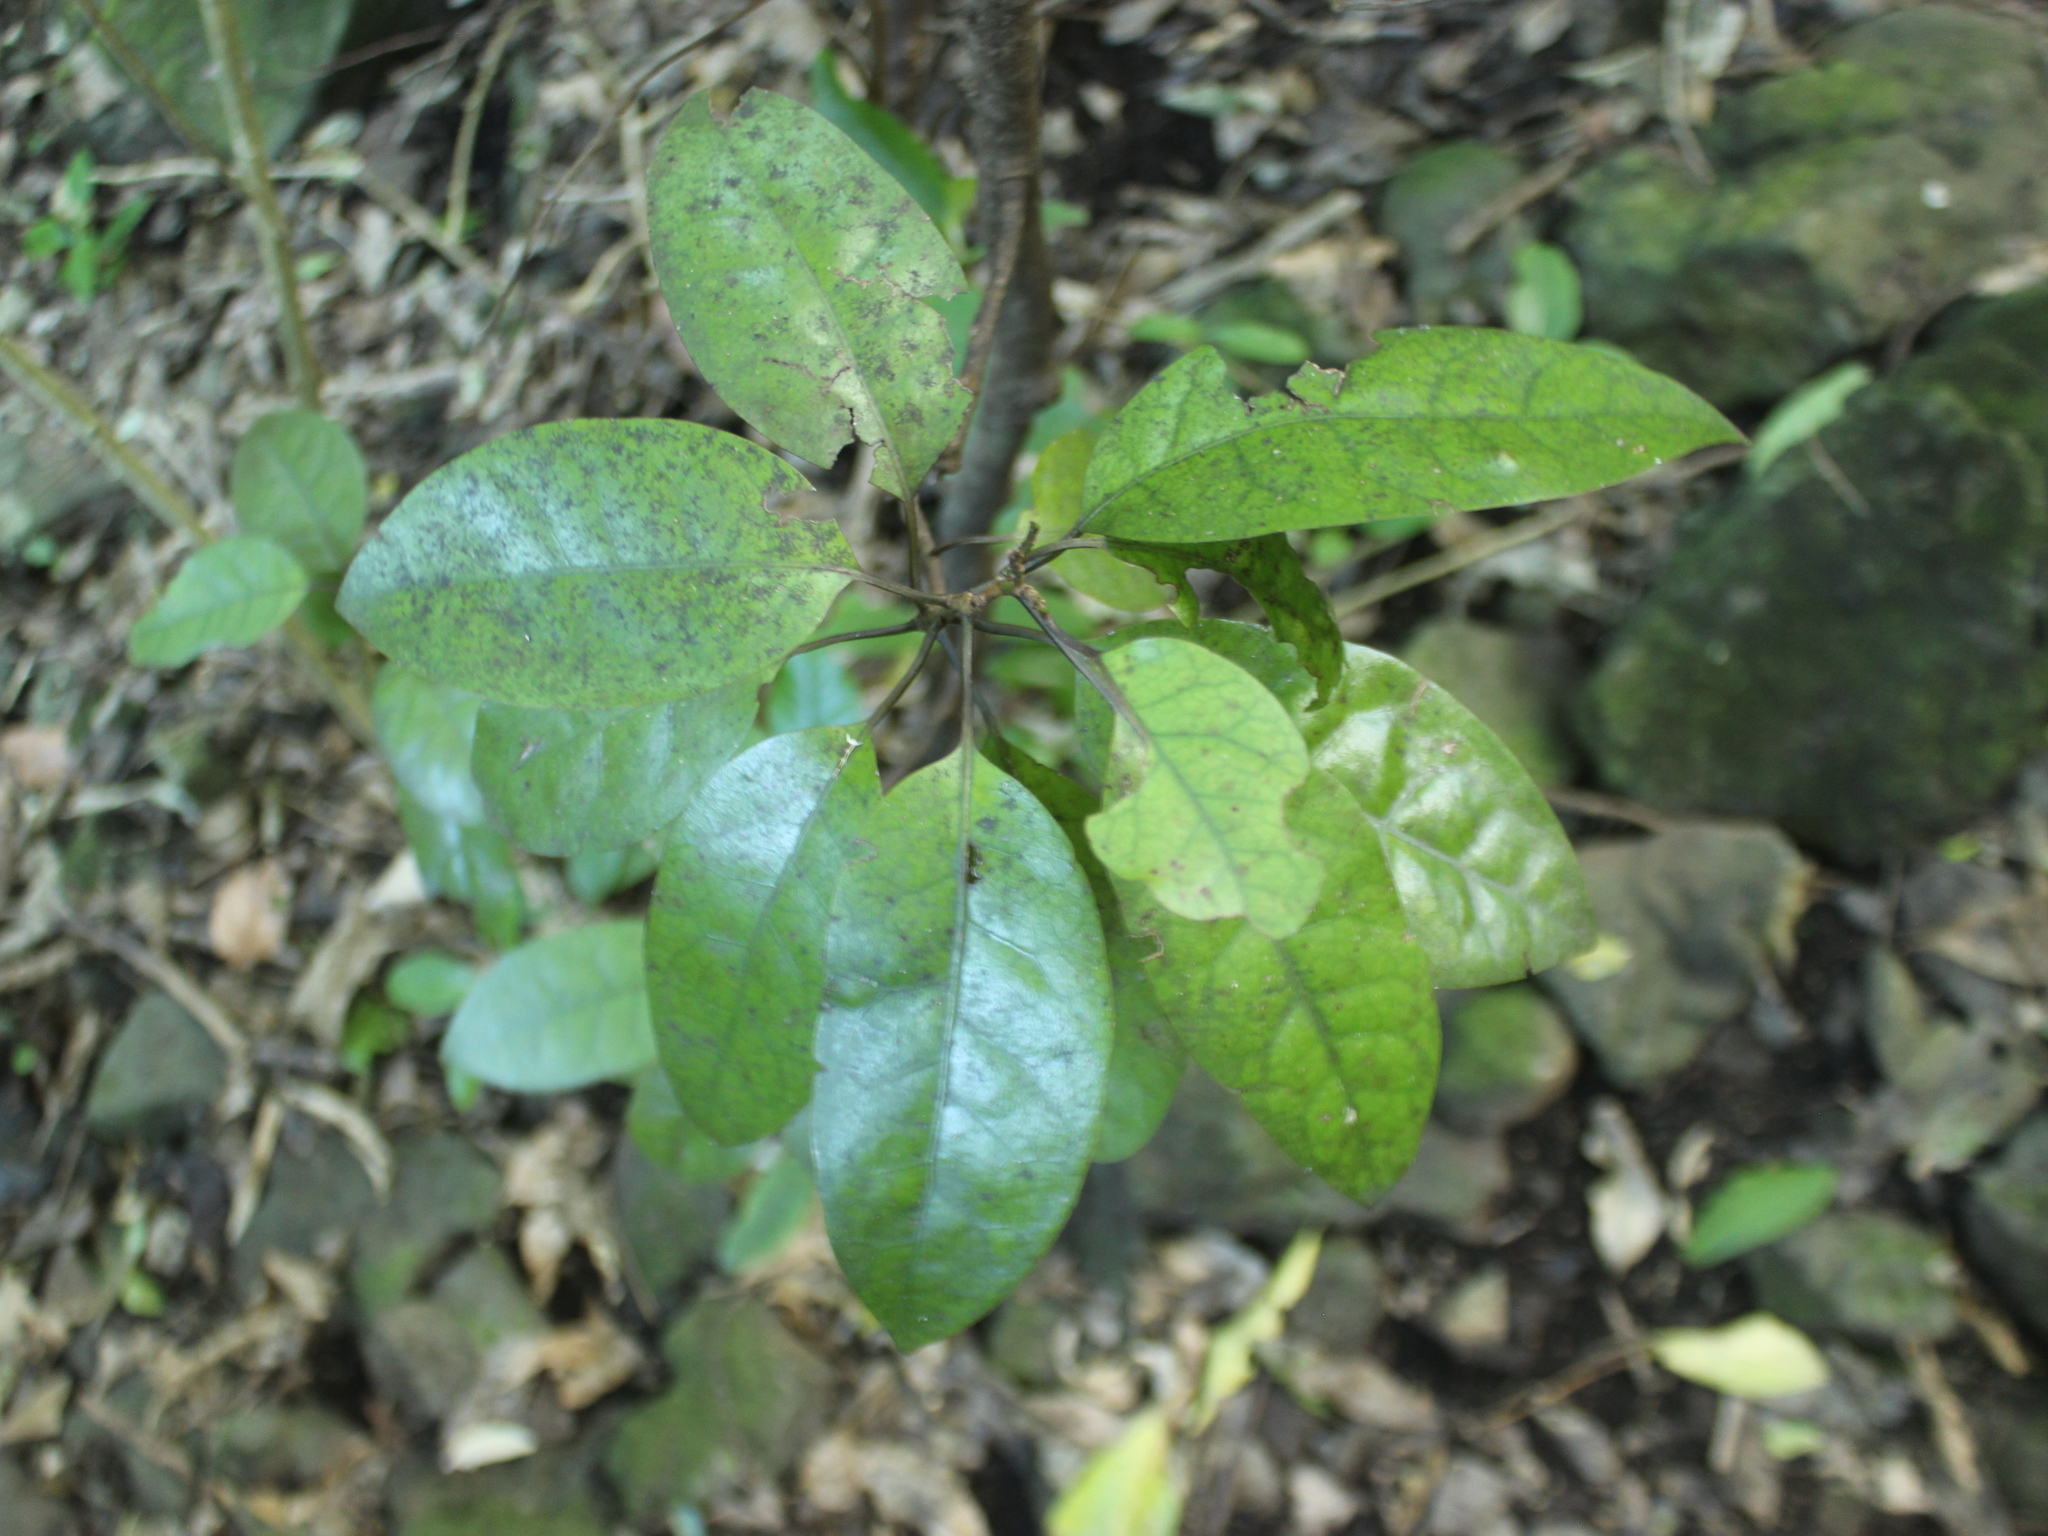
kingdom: Plantae
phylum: Tracheophyta
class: Magnoliopsida
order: Laurales
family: Lauraceae
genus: Litsea
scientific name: Litsea calicaris
